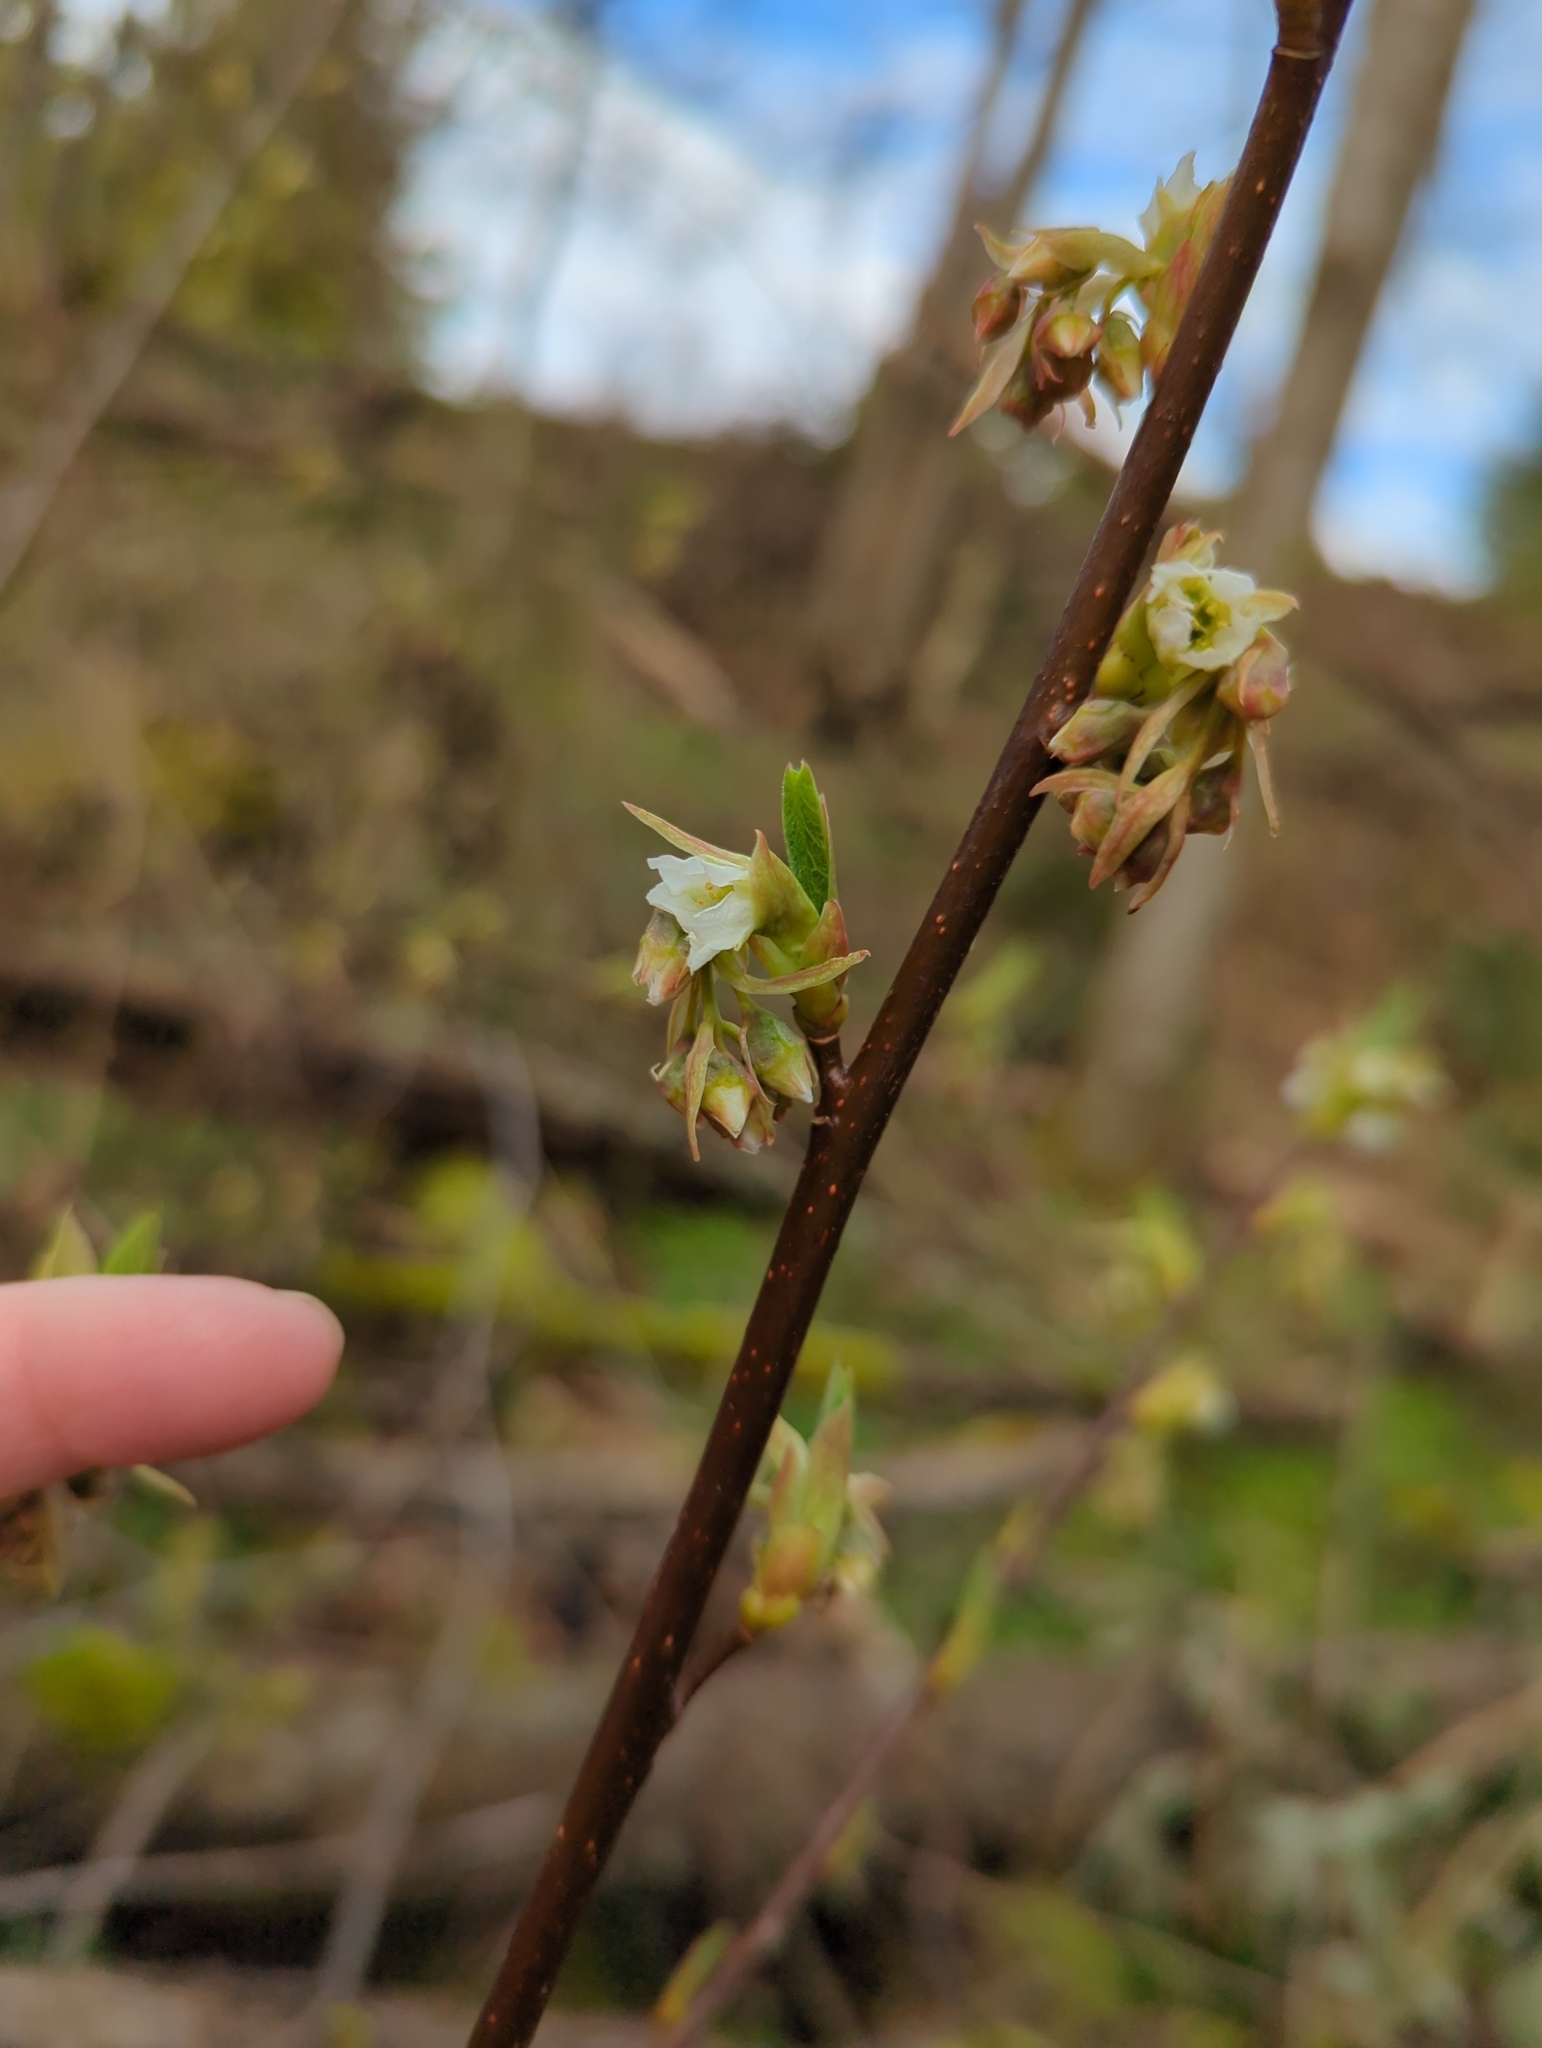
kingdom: Plantae
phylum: Tracheophyta
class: Magnoliopsida
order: Rosales
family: Rosaceae
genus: Oemleria
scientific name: Oemleria cerasiformis
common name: Osoberry
